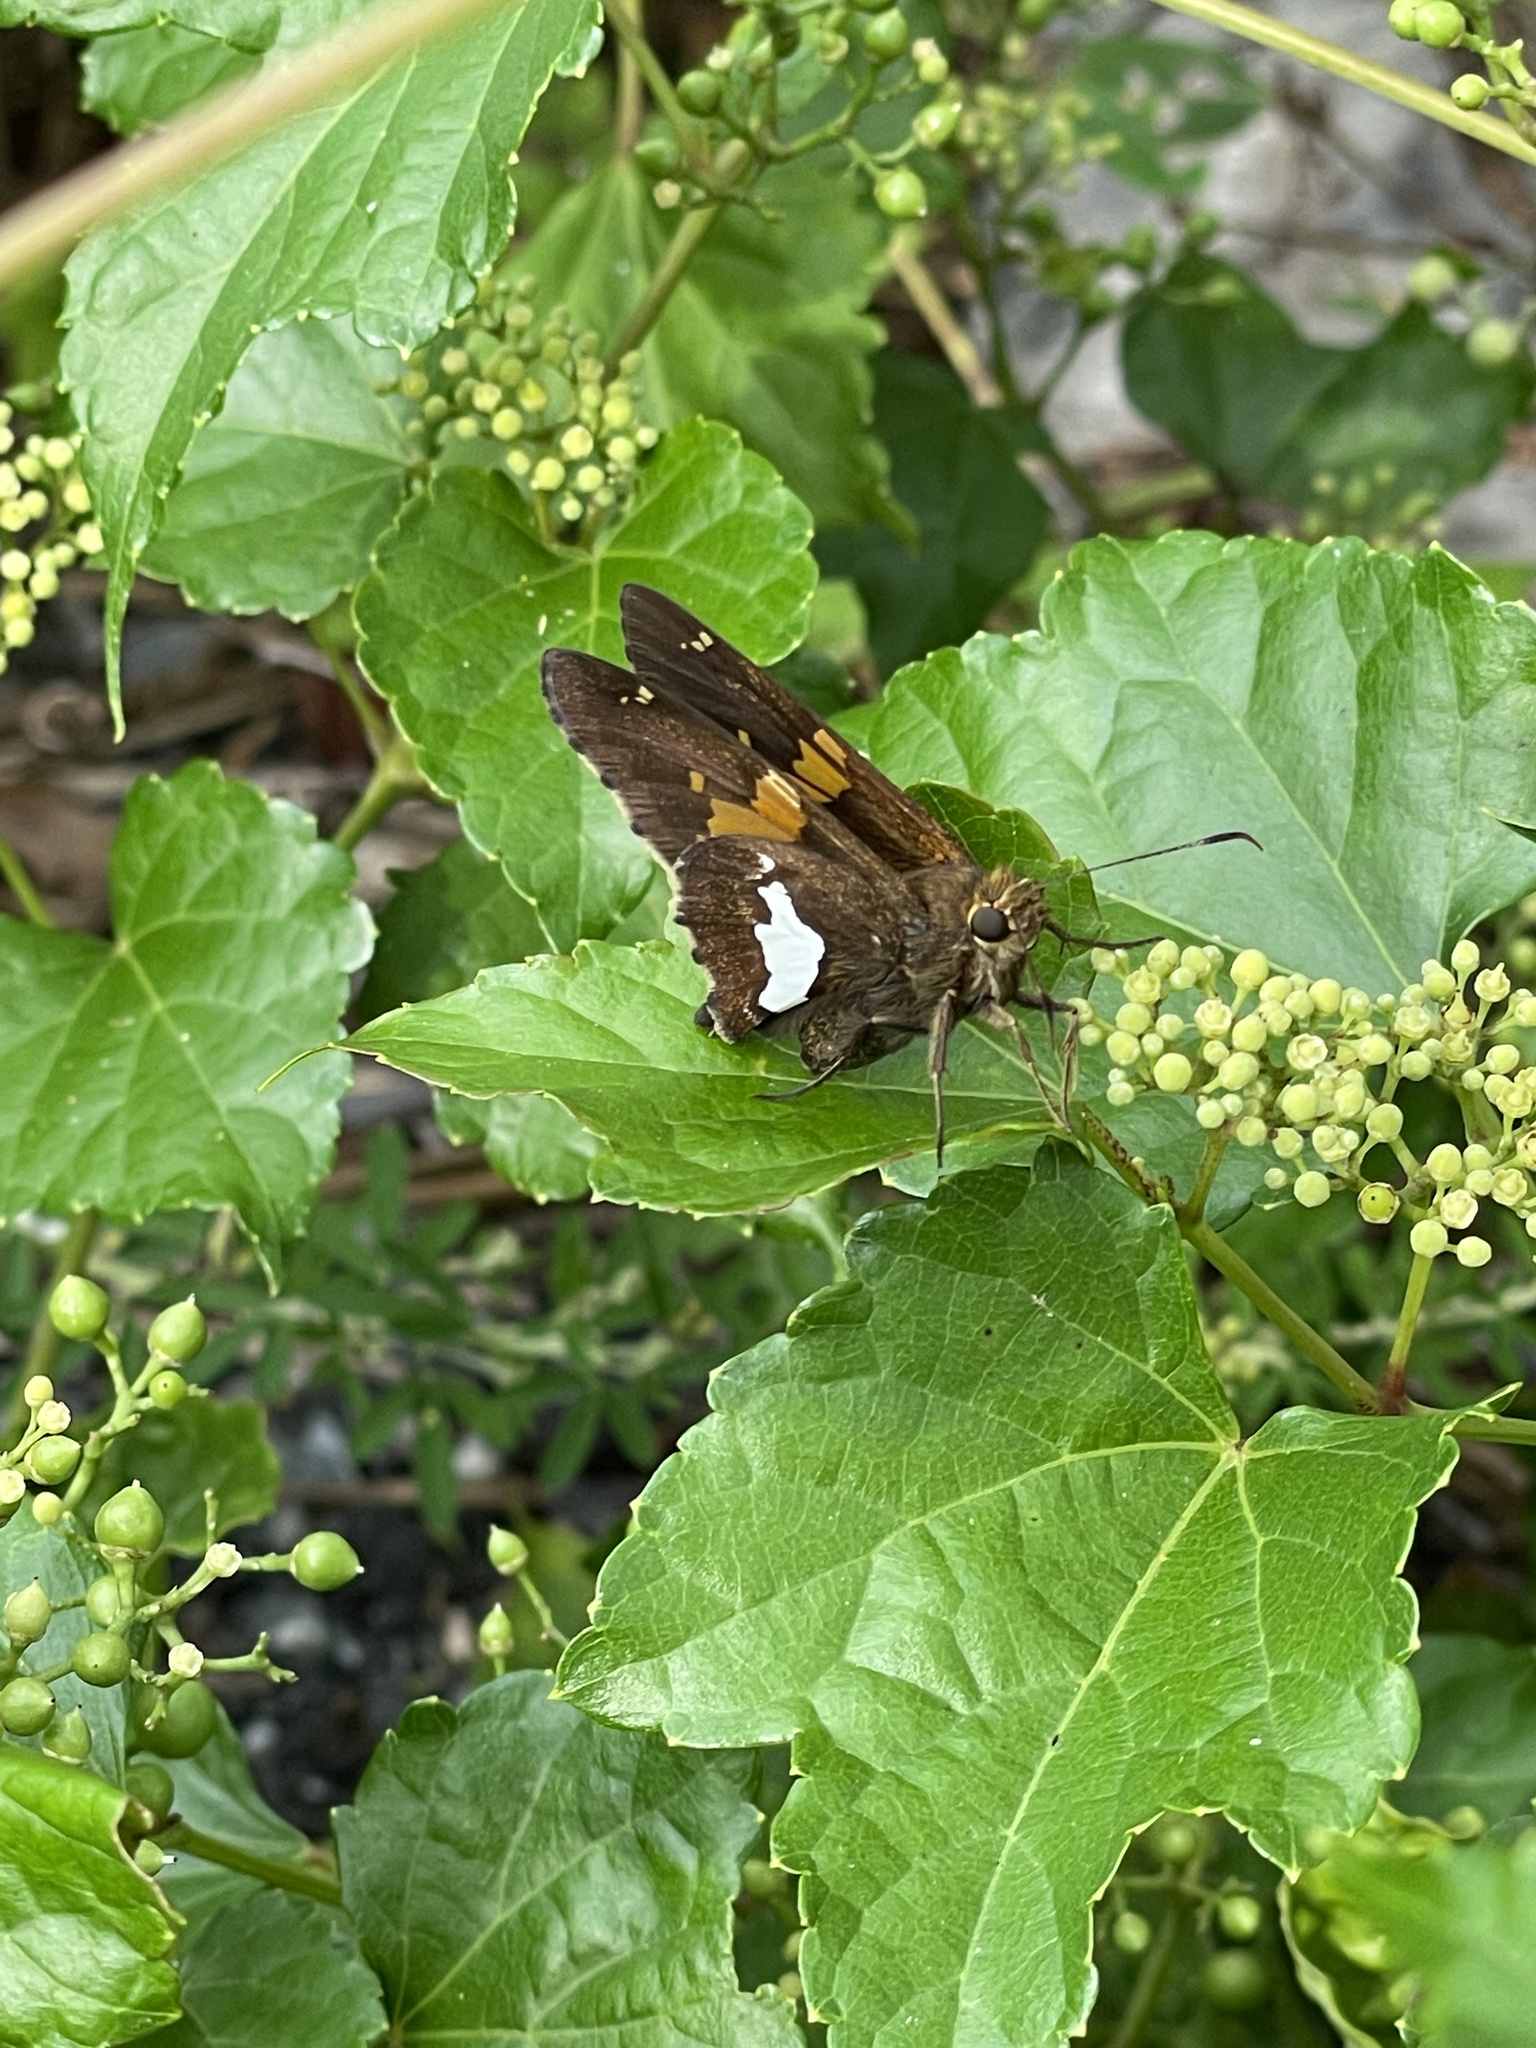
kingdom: Animalia
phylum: Arthropoda
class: Insecta
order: Lepidoptera
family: Hesperiidae
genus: Epargyreus
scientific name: Epargyreus clarus
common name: Silver-spotted skipper
